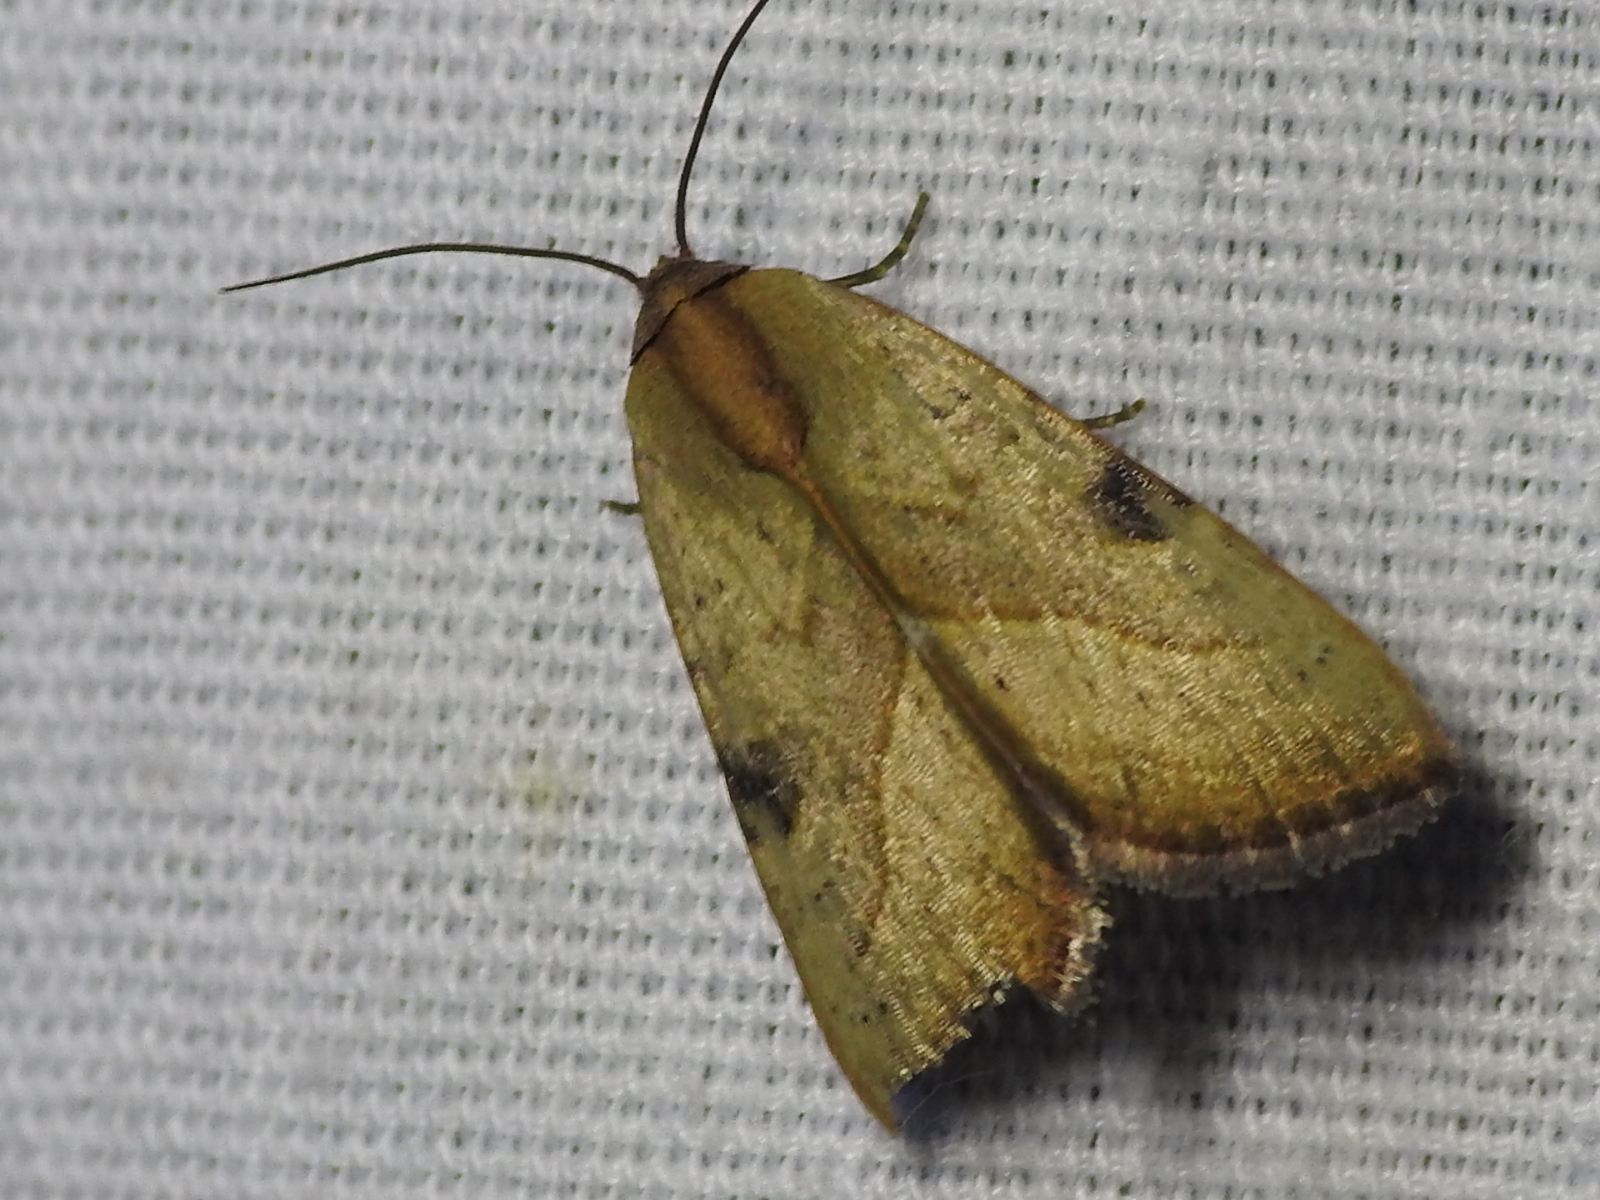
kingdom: Animalia
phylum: Arthropoda
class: Insecta
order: Lepidoptera
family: Noctuidae
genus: Galgula
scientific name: Galgula partita
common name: Wedgeling
